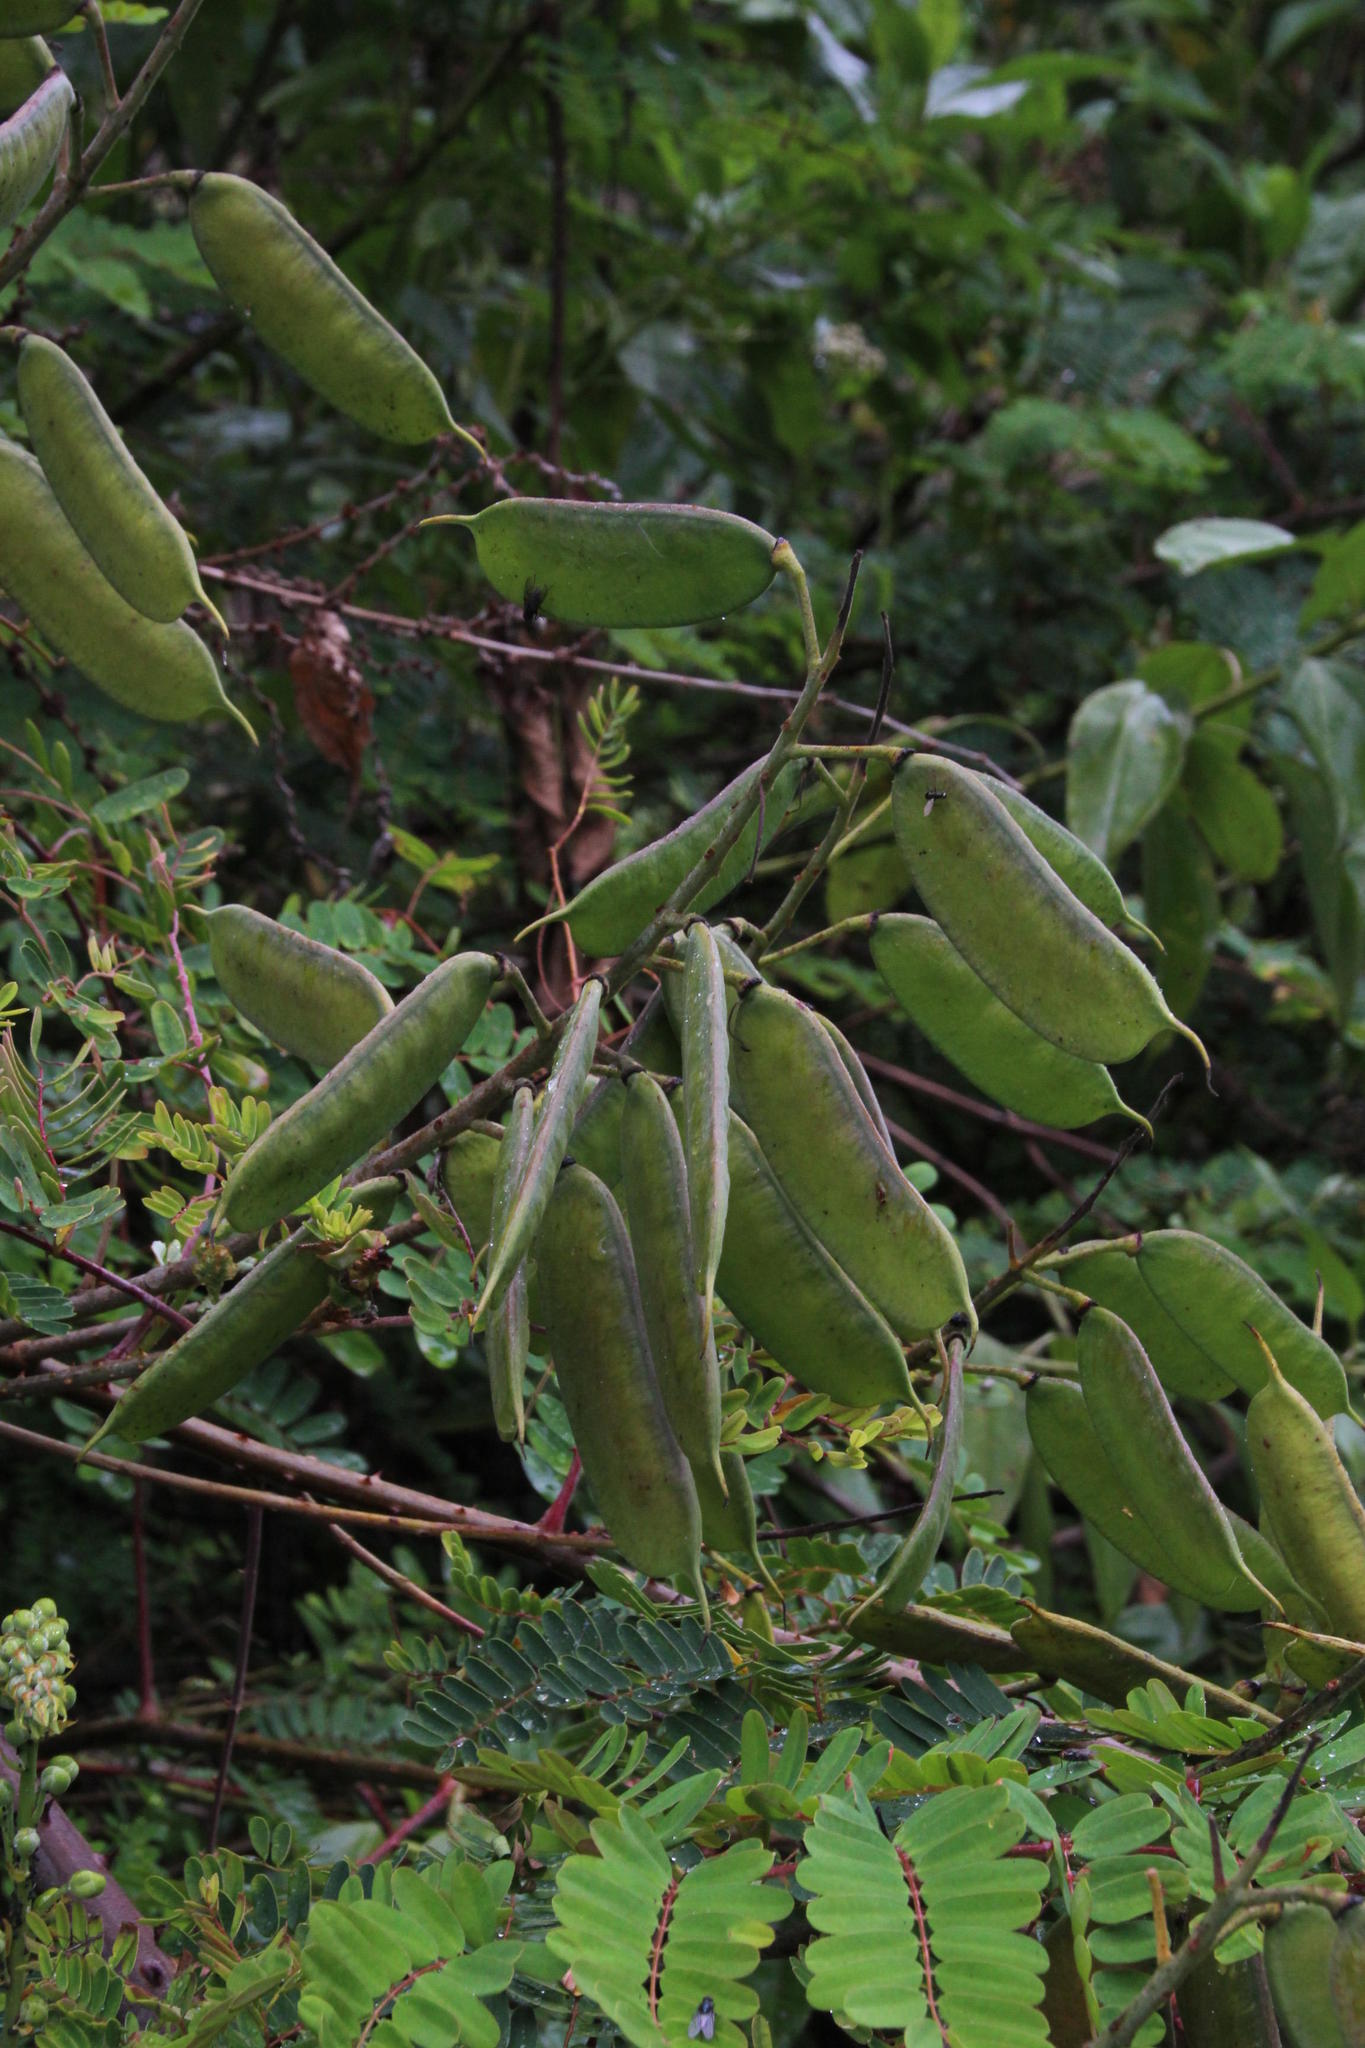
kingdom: Plantae
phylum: Tracheophyta
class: Magnoliopsida
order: Fabales
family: Fabaceae
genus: Biancaea
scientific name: Biancaea decapetala
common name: Cat's claw
